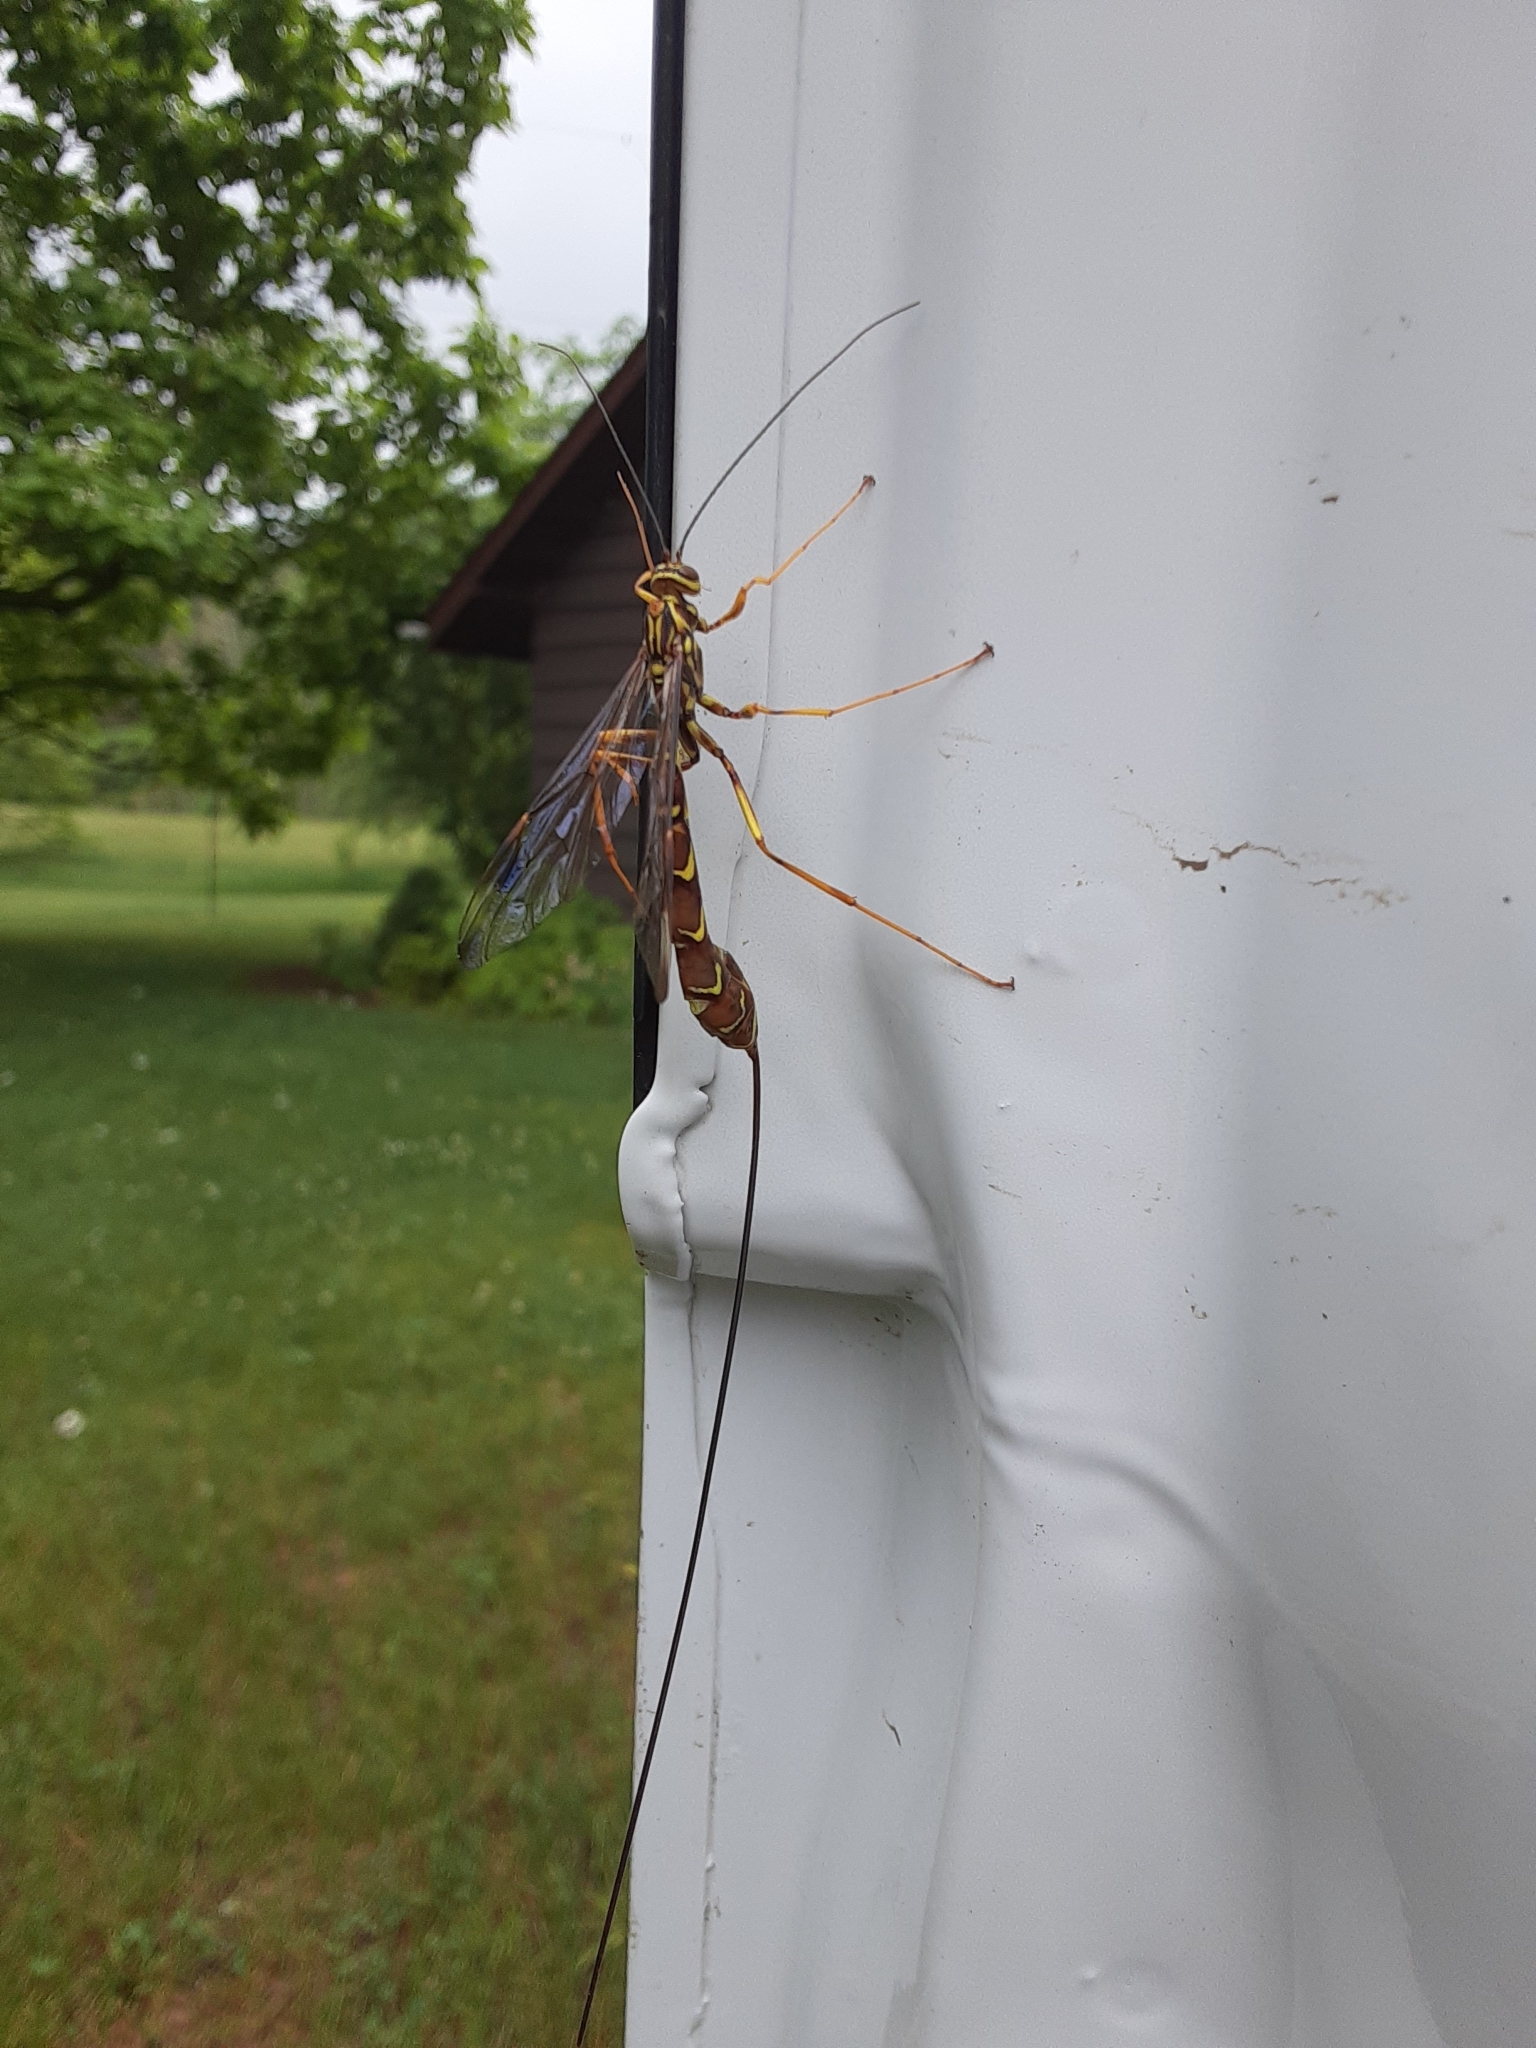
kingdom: Animalia
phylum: Arthropoda
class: Insecta
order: Hymenoptera
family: Ichneumonidae
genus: Megarhyssa
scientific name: Megarhyssa macrura
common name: Long-tailed giant ichneumonid wasp
